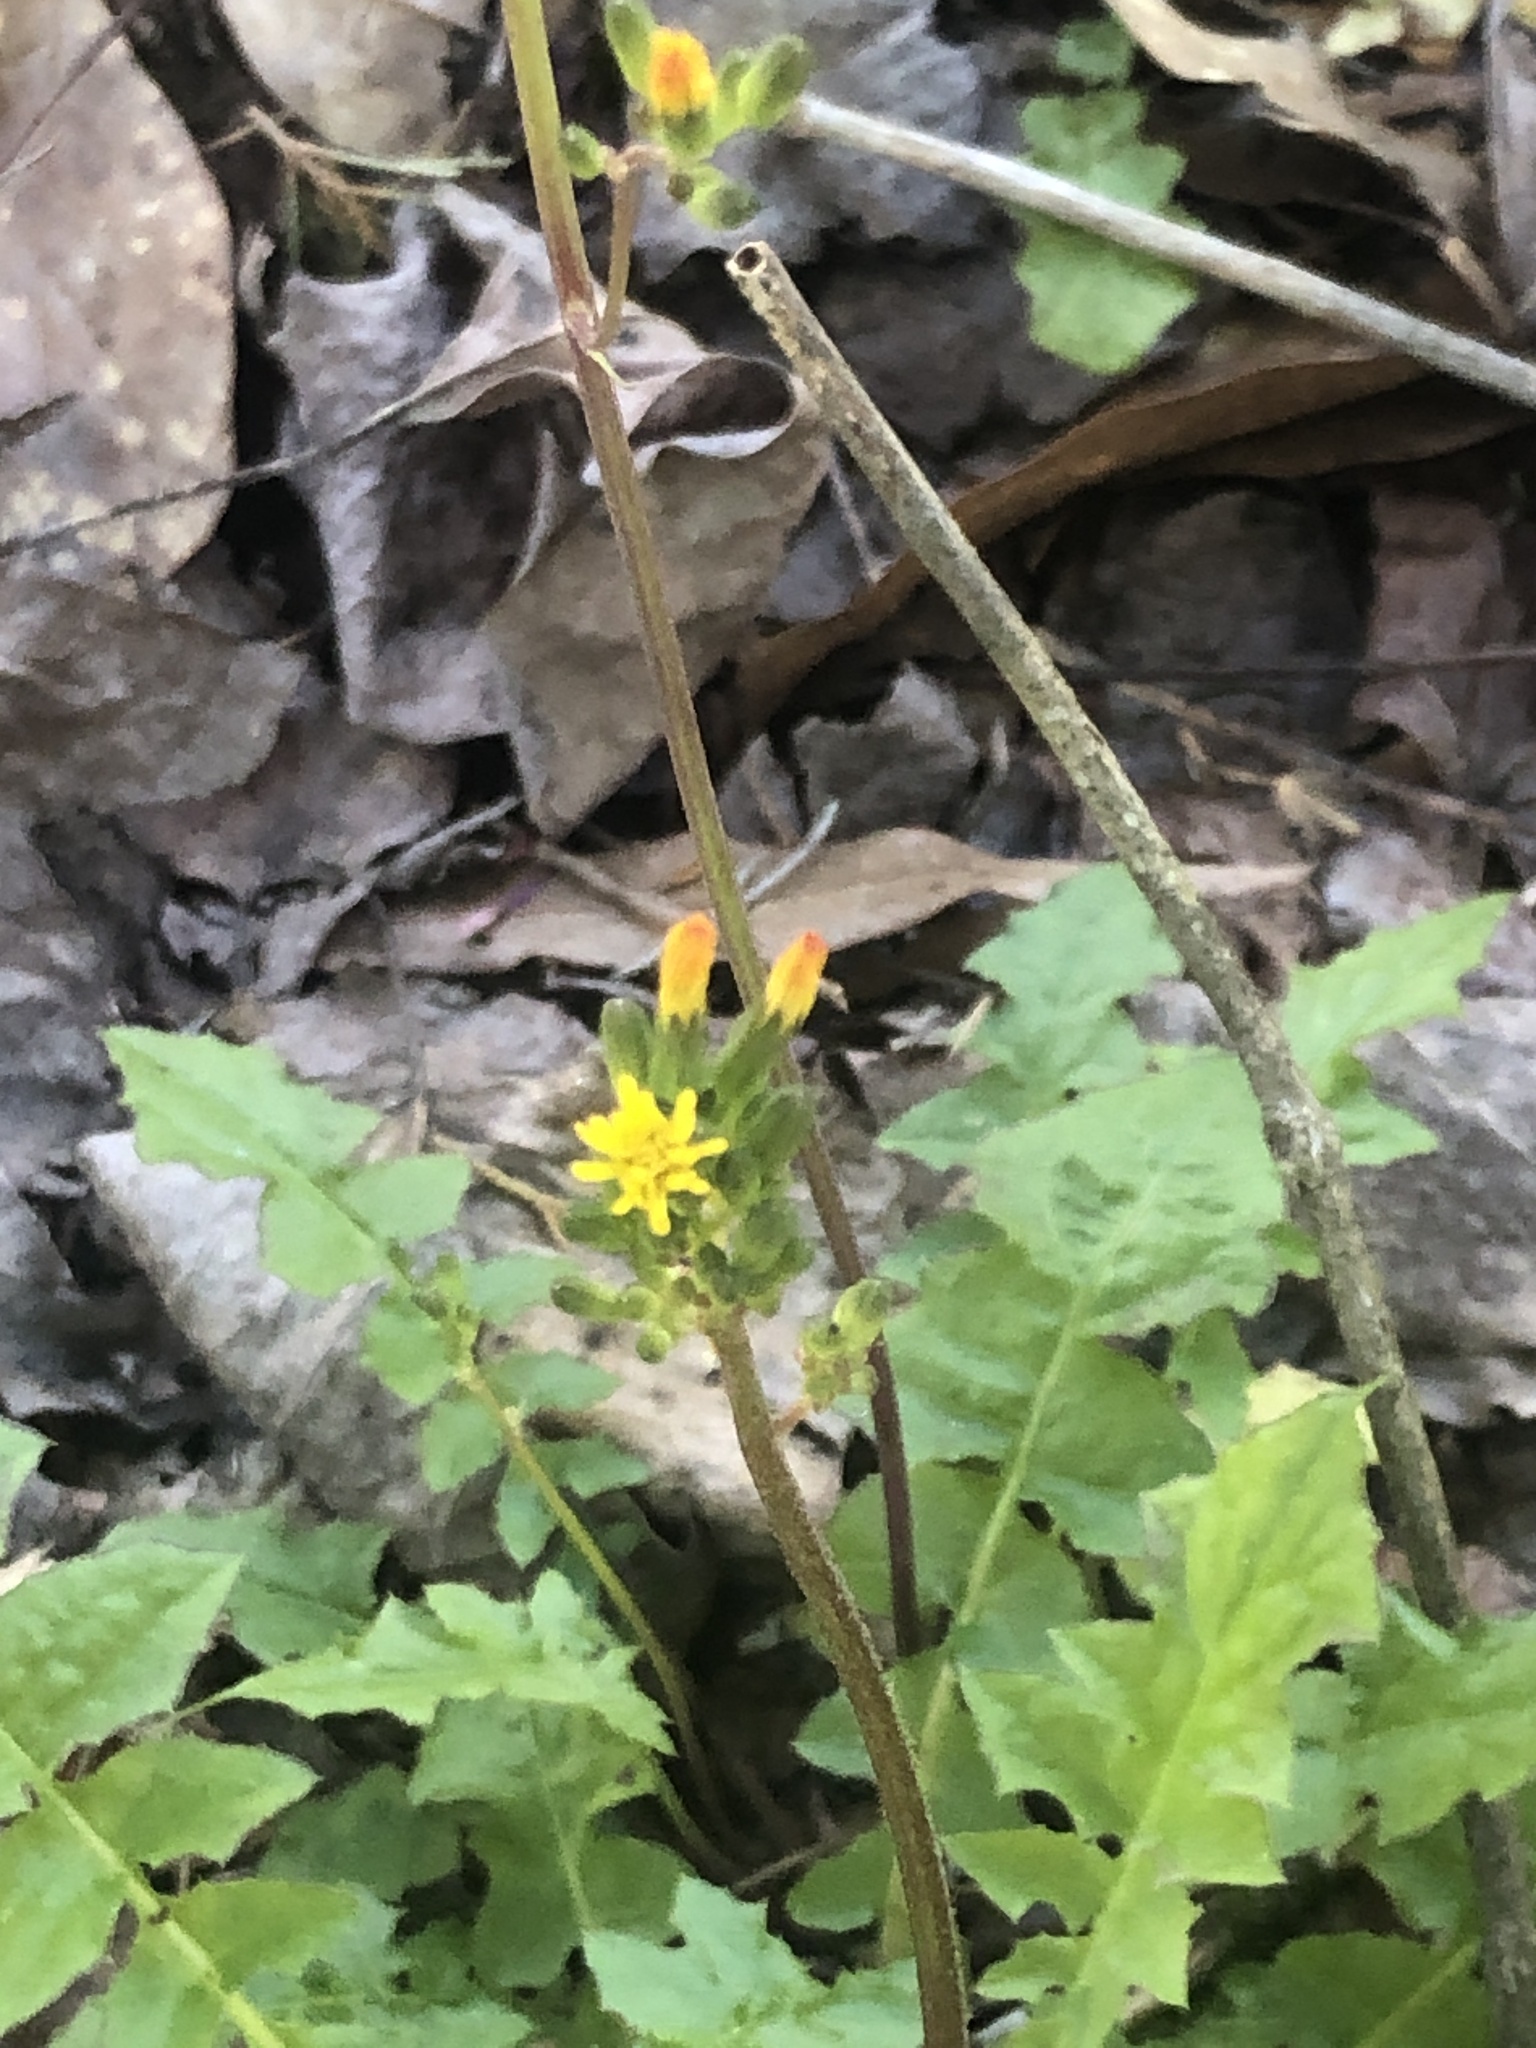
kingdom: Plantae
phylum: Tracheophyta
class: Magnoliopsida
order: Asterales
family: Asteraceae
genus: Youngia
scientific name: Youngia japonica
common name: Oriental false hawksbeard
